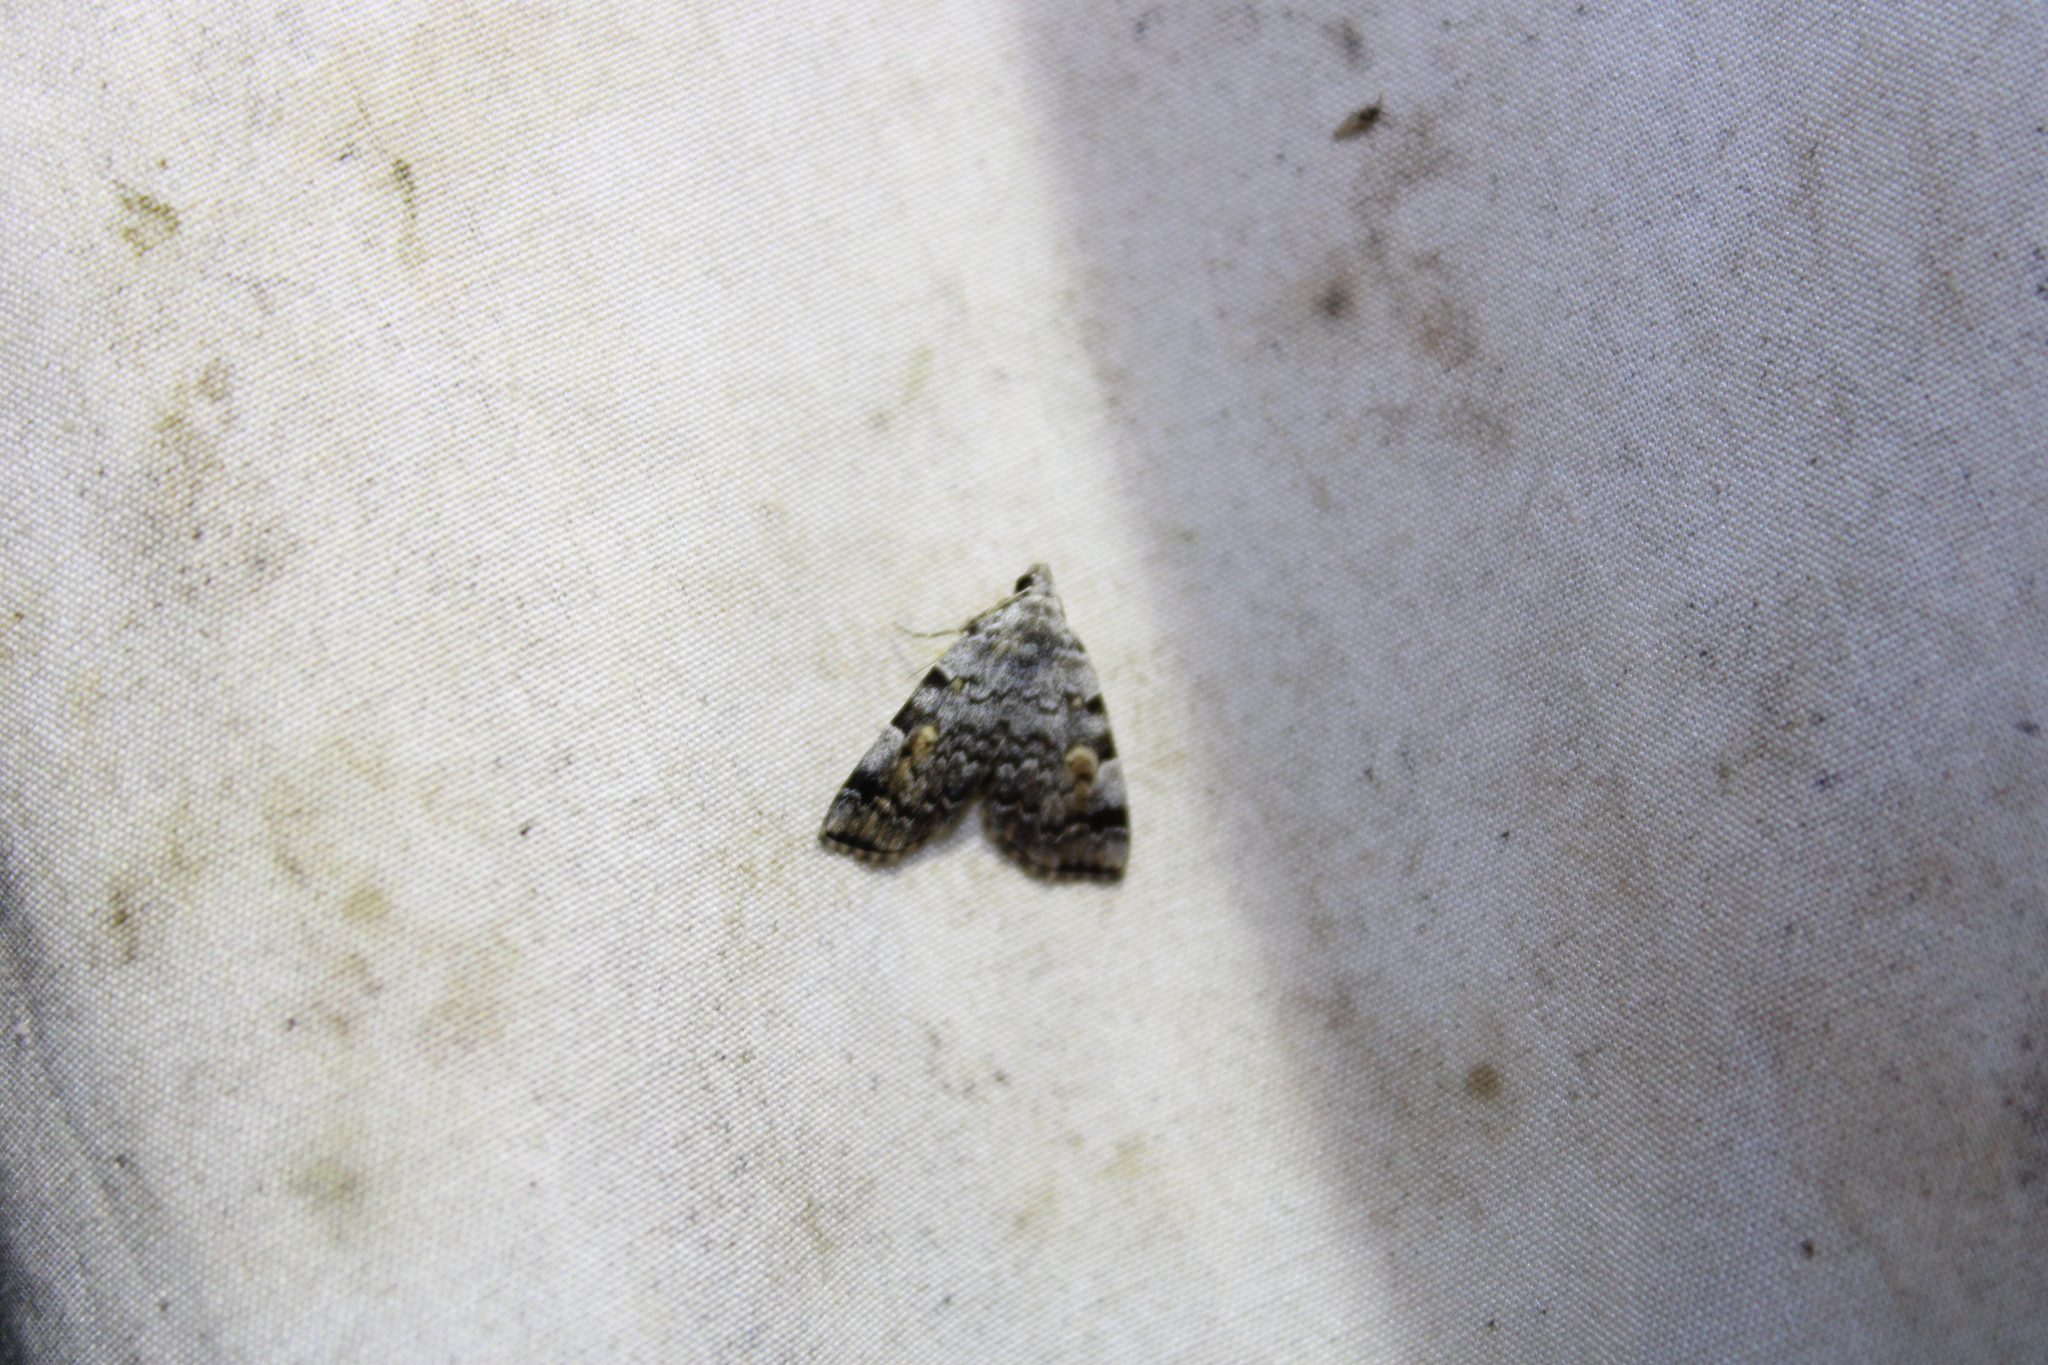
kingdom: Animalia
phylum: Arthropoda
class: Insecta
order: Lepidoptera
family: Erebidae
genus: Idia
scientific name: Idia americalis
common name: American idia moth
